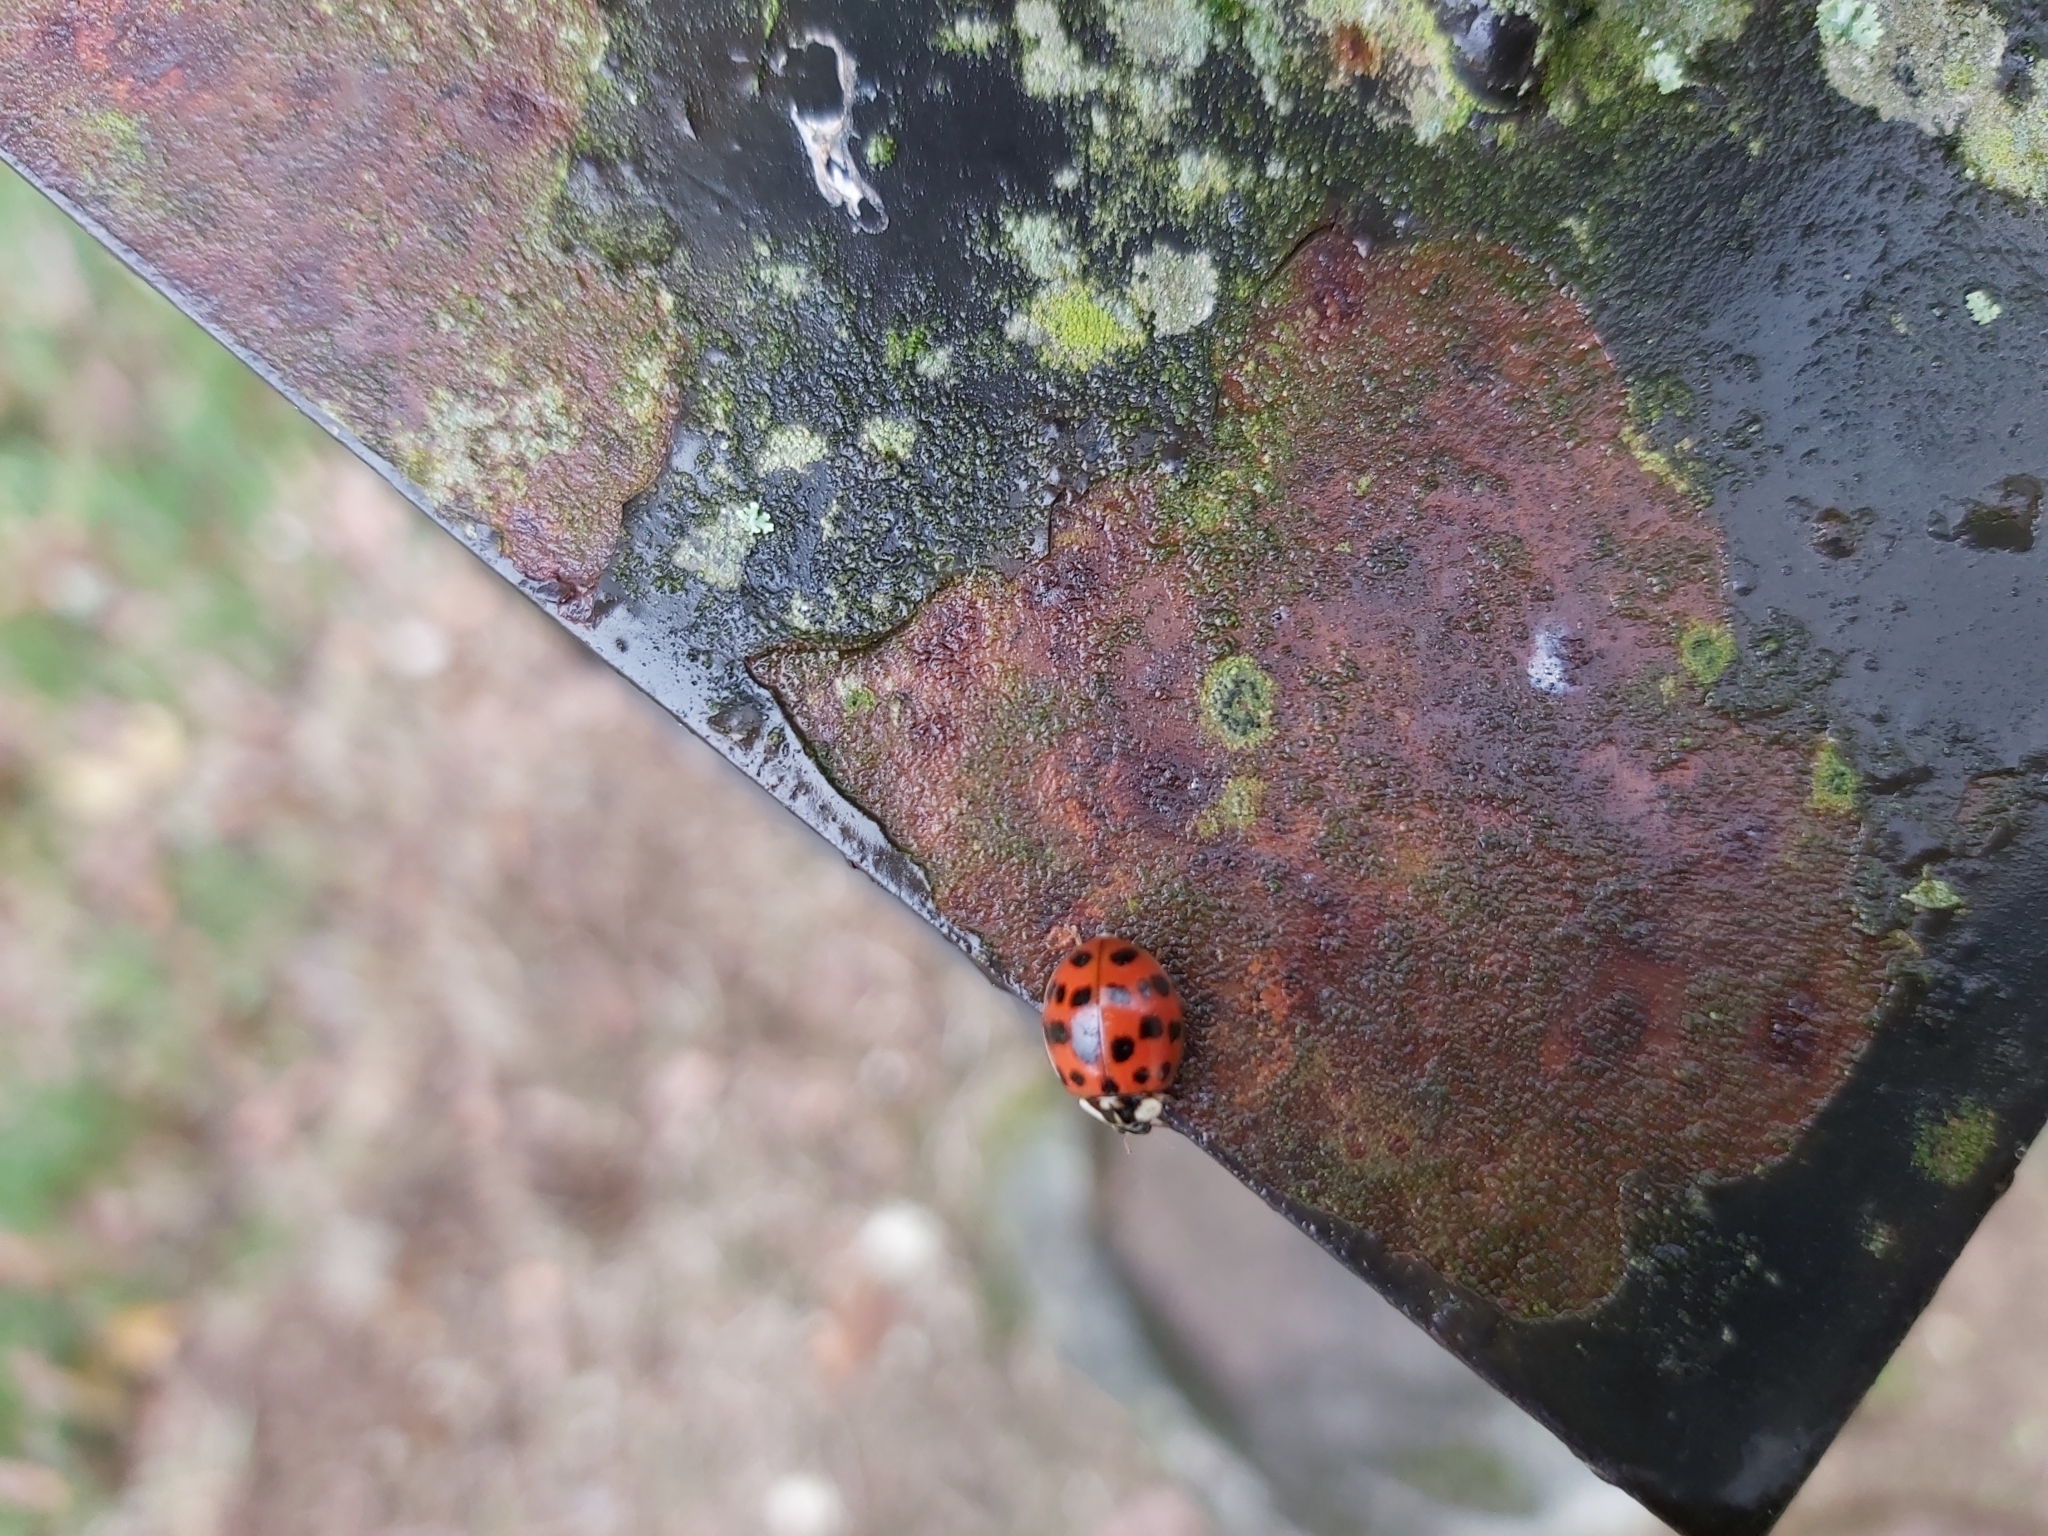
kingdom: Animalia
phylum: Arthropoda
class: Insecta
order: Coleoptera
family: Coccinellidae
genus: Harmonia
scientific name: Harmonia axyridis
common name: Harlequin ladybird
